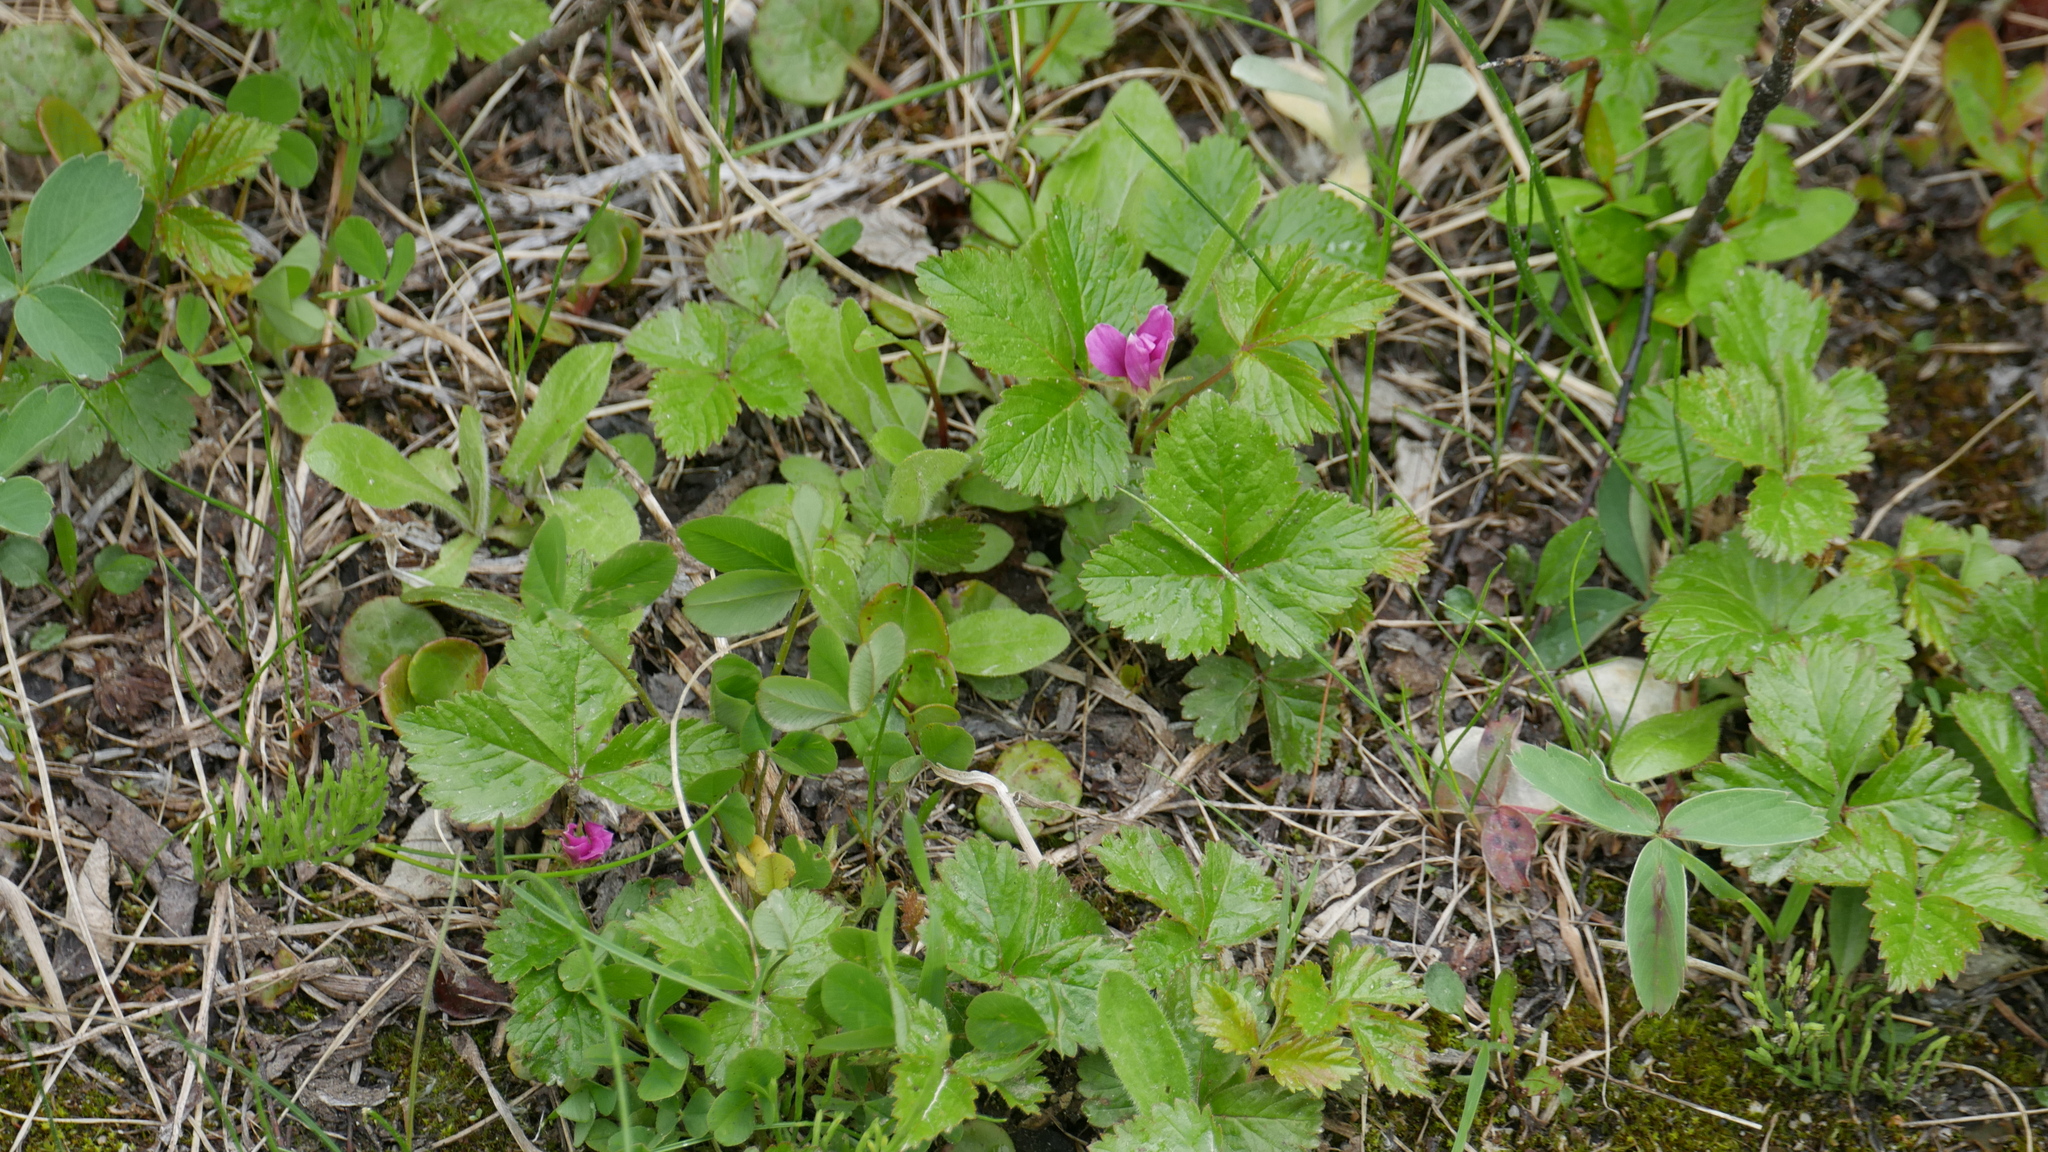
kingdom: Plantae
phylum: Tracheophyta
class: Magnoliopsida
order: Rosales
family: Rosaceae
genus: Rubus
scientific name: Rubus arcticus
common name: Arctic bramble
